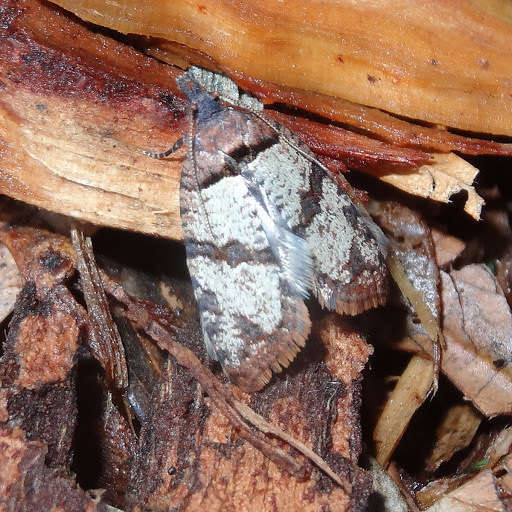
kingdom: Animalia
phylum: Arthropoda
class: Insecta
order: Lepidoptera
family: Tortricidae
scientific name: Tortricidae
